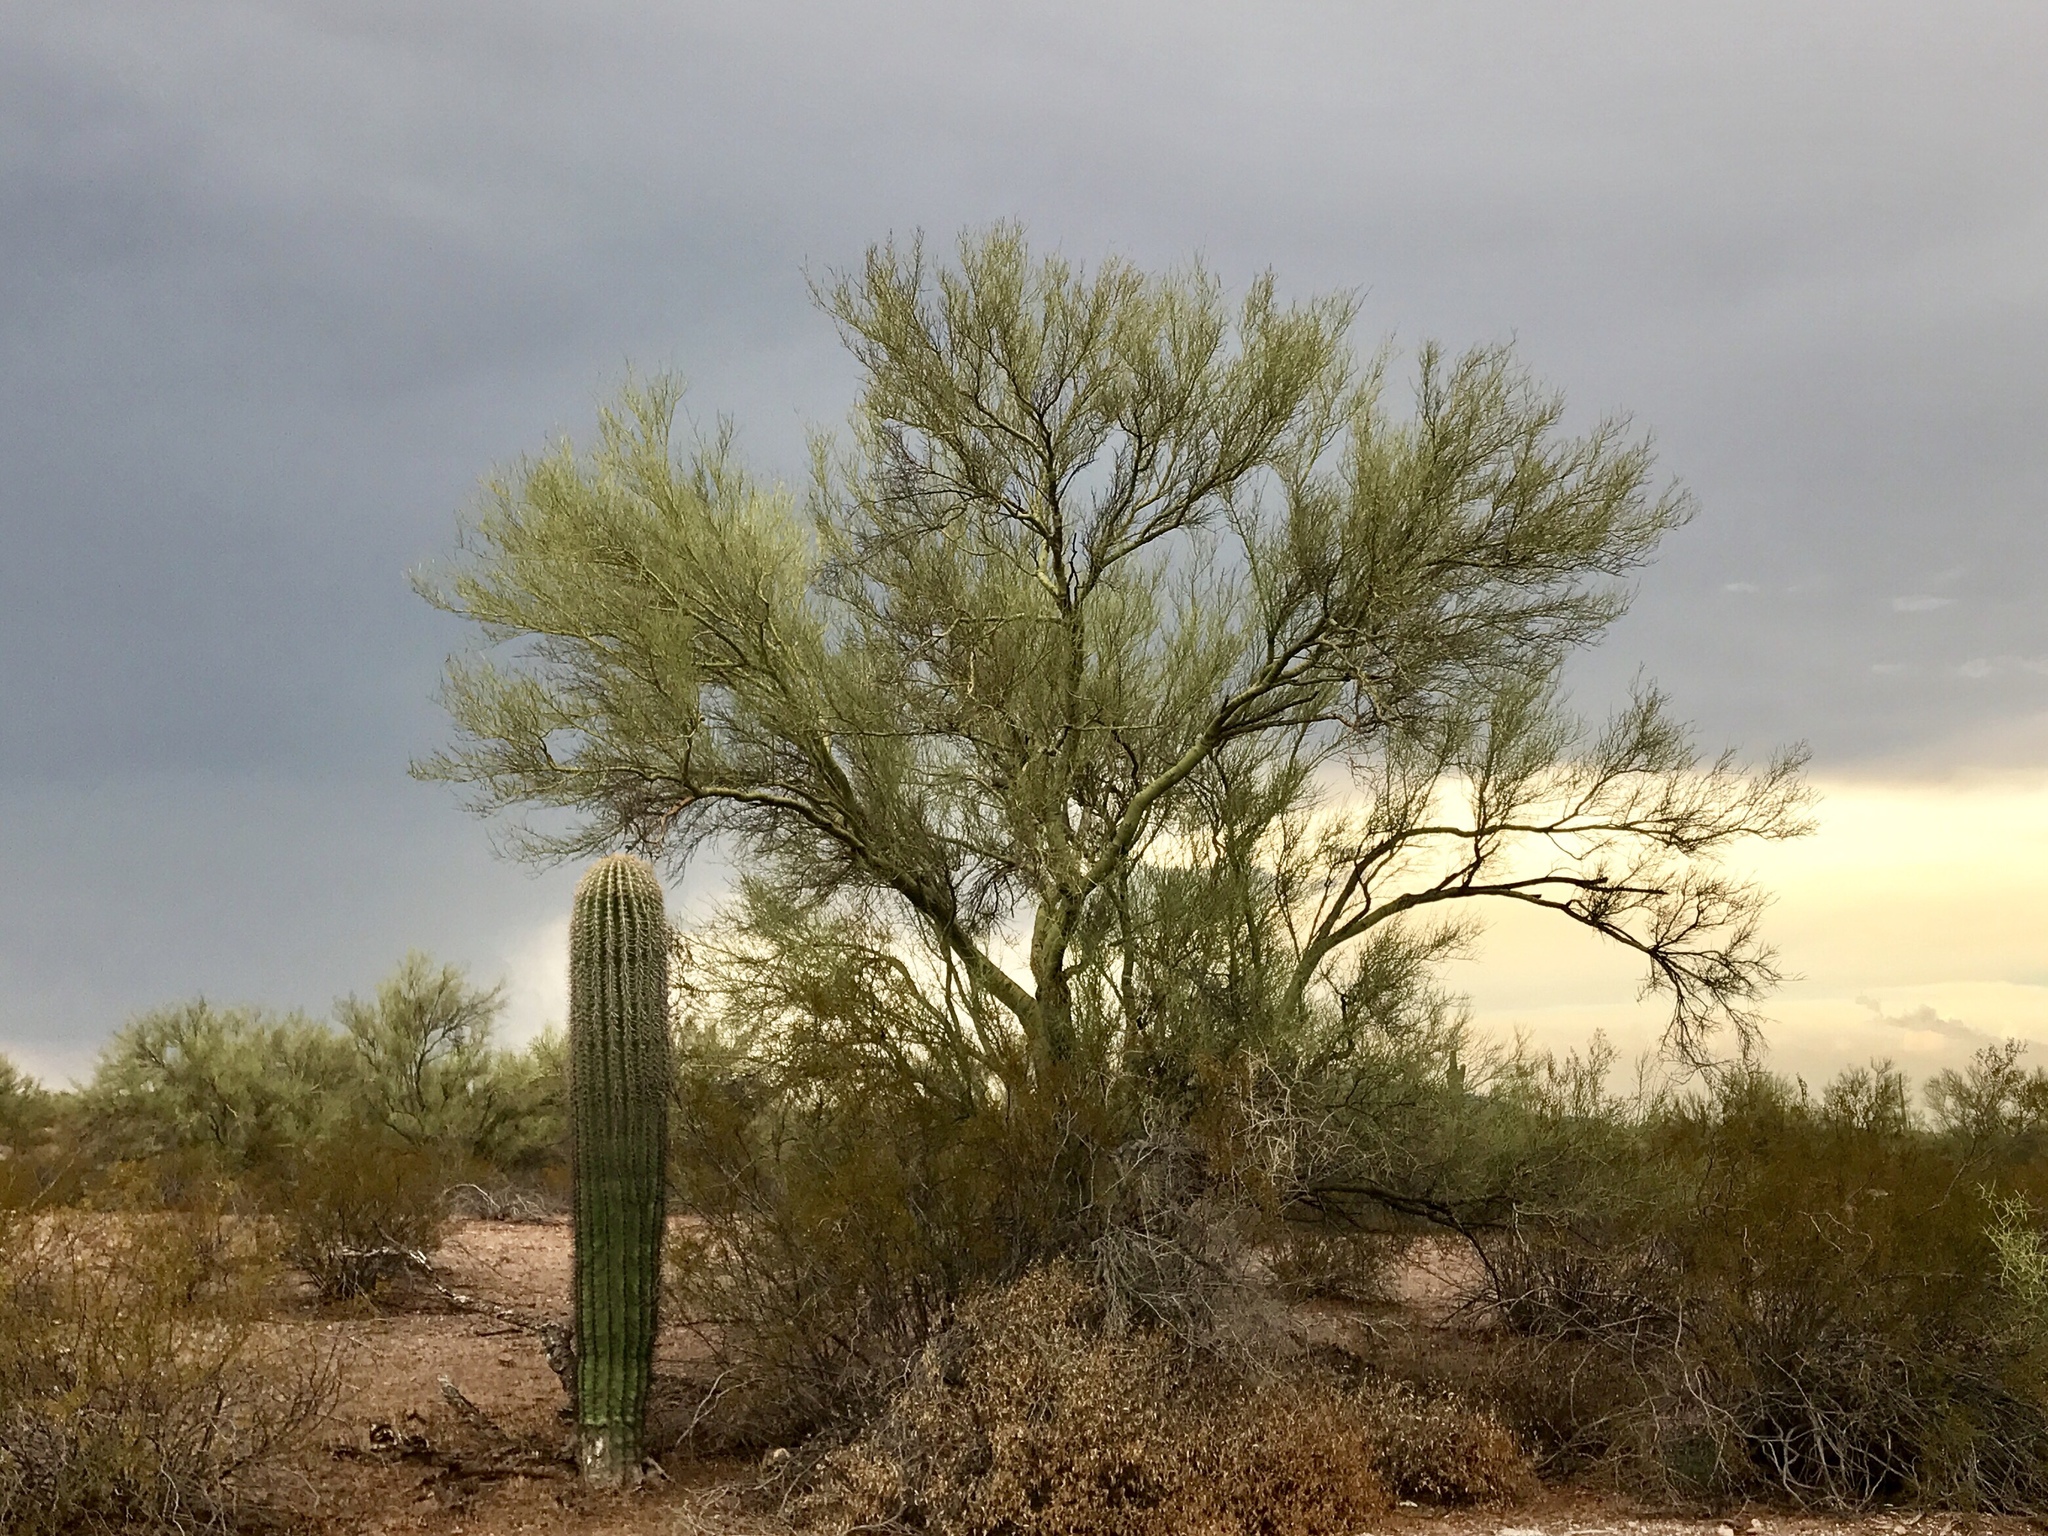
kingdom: Plantae
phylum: Tracheophyta
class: Magnoliopsida
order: Caryophyllales
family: Cactaceae
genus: Carnegiea
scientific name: Carnegiea gigantea
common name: Saguaro
